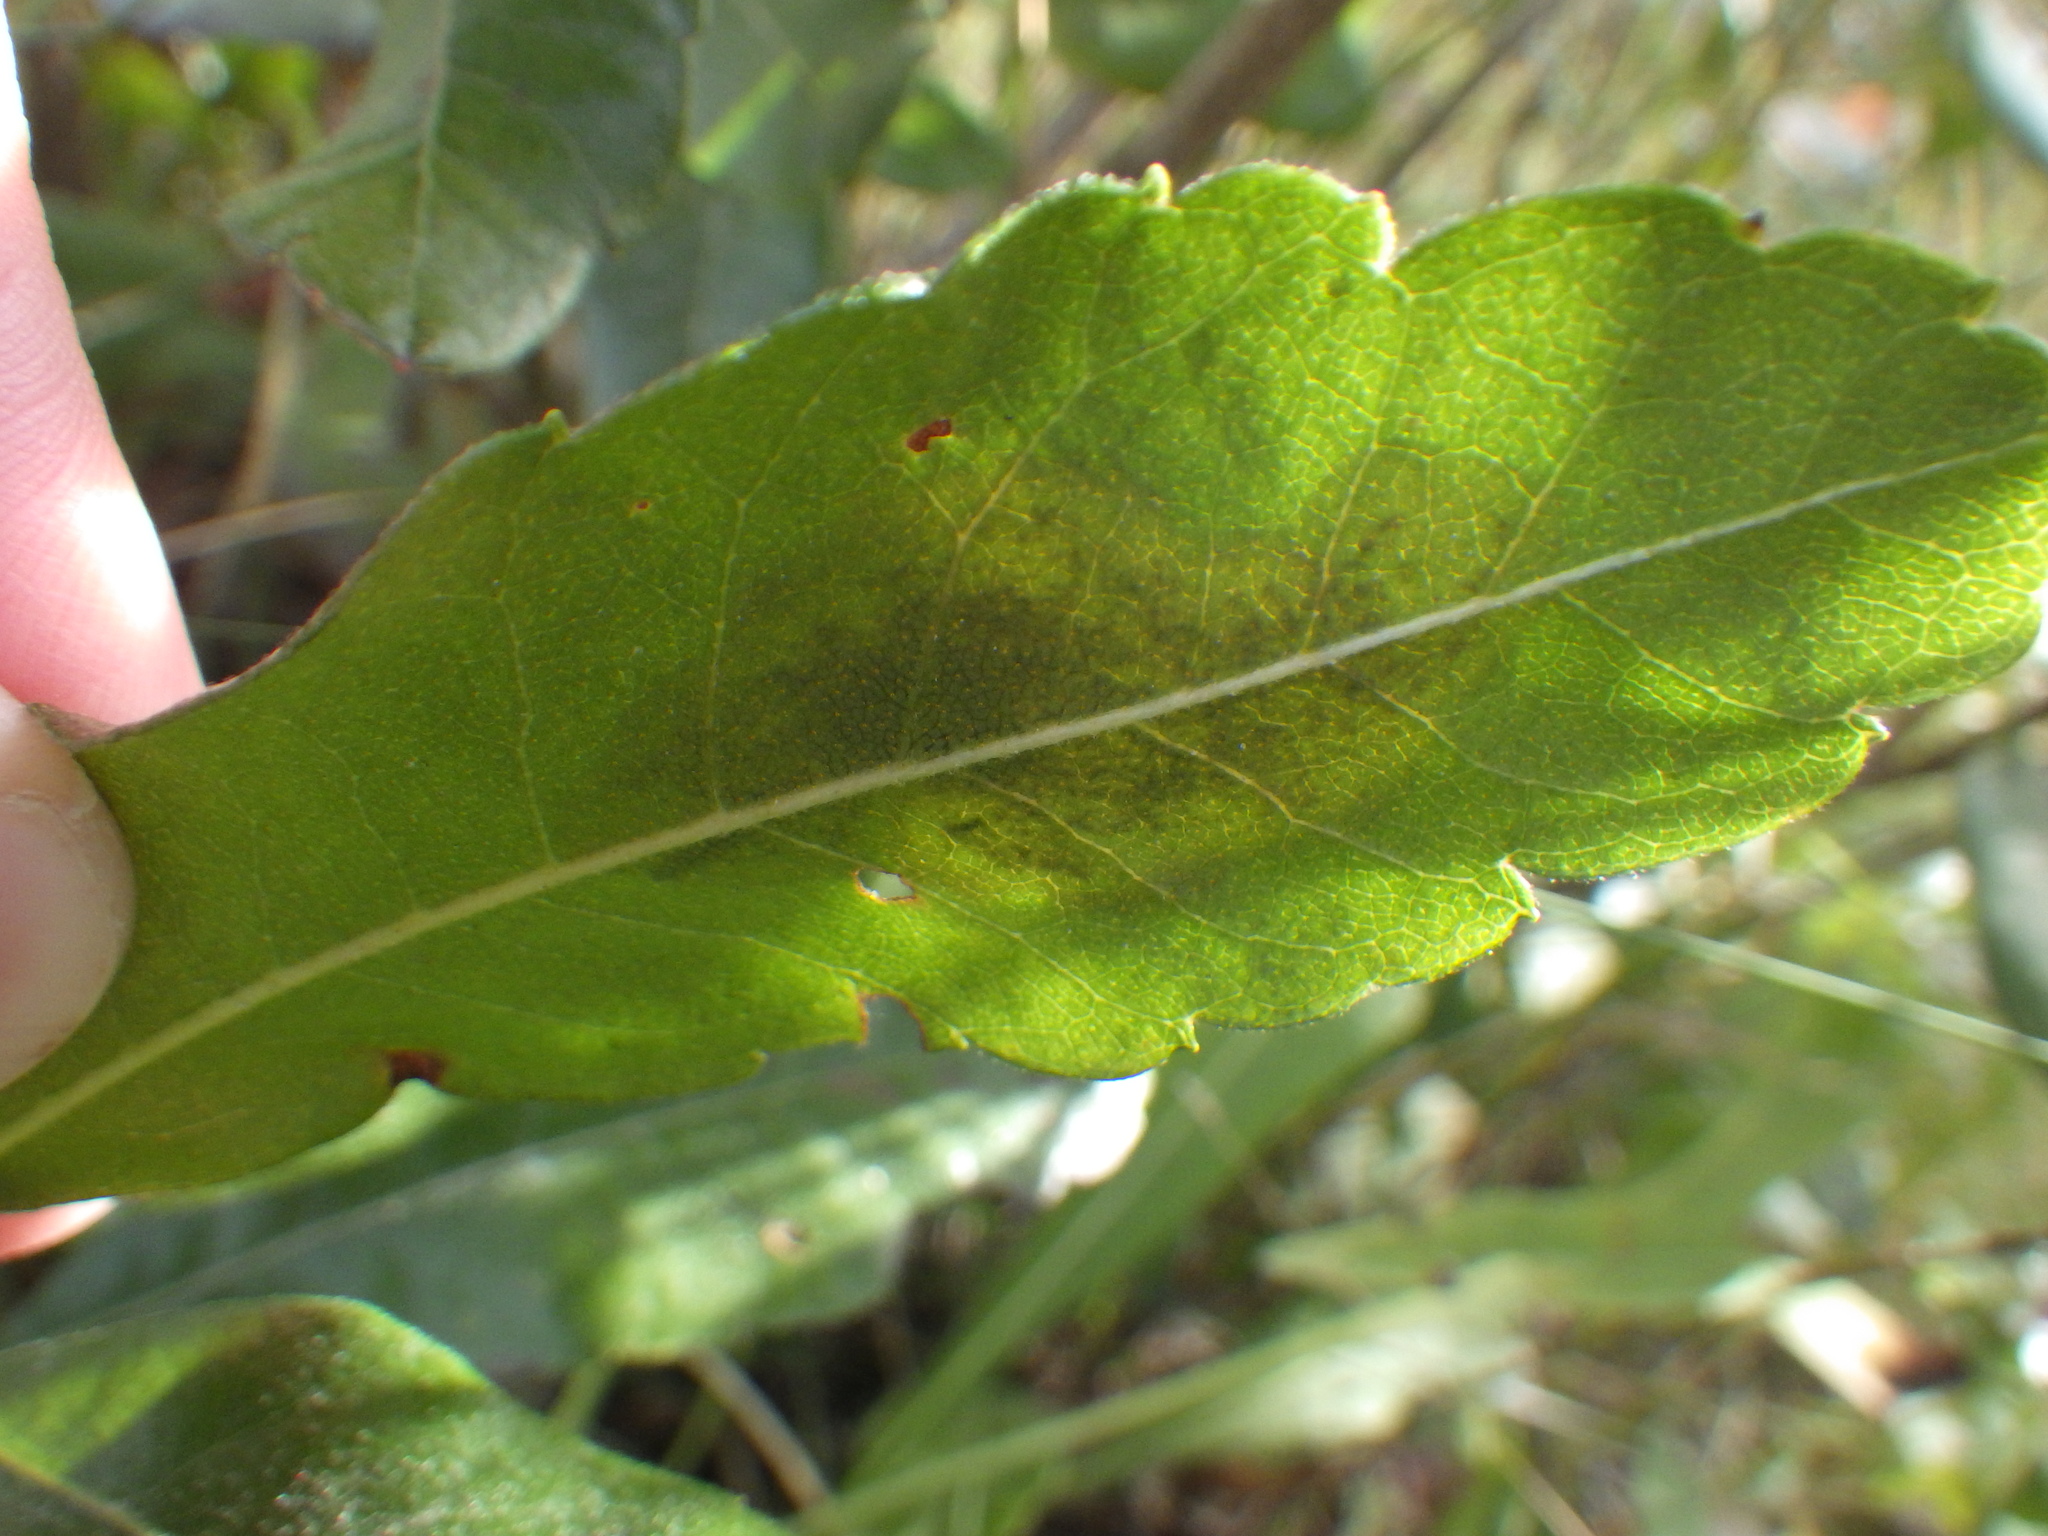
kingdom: Animalia
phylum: Arthropoda
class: Insecta
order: Lepidoptera
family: Gracillariidae
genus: Cameraria
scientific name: Cameraria picturatella
